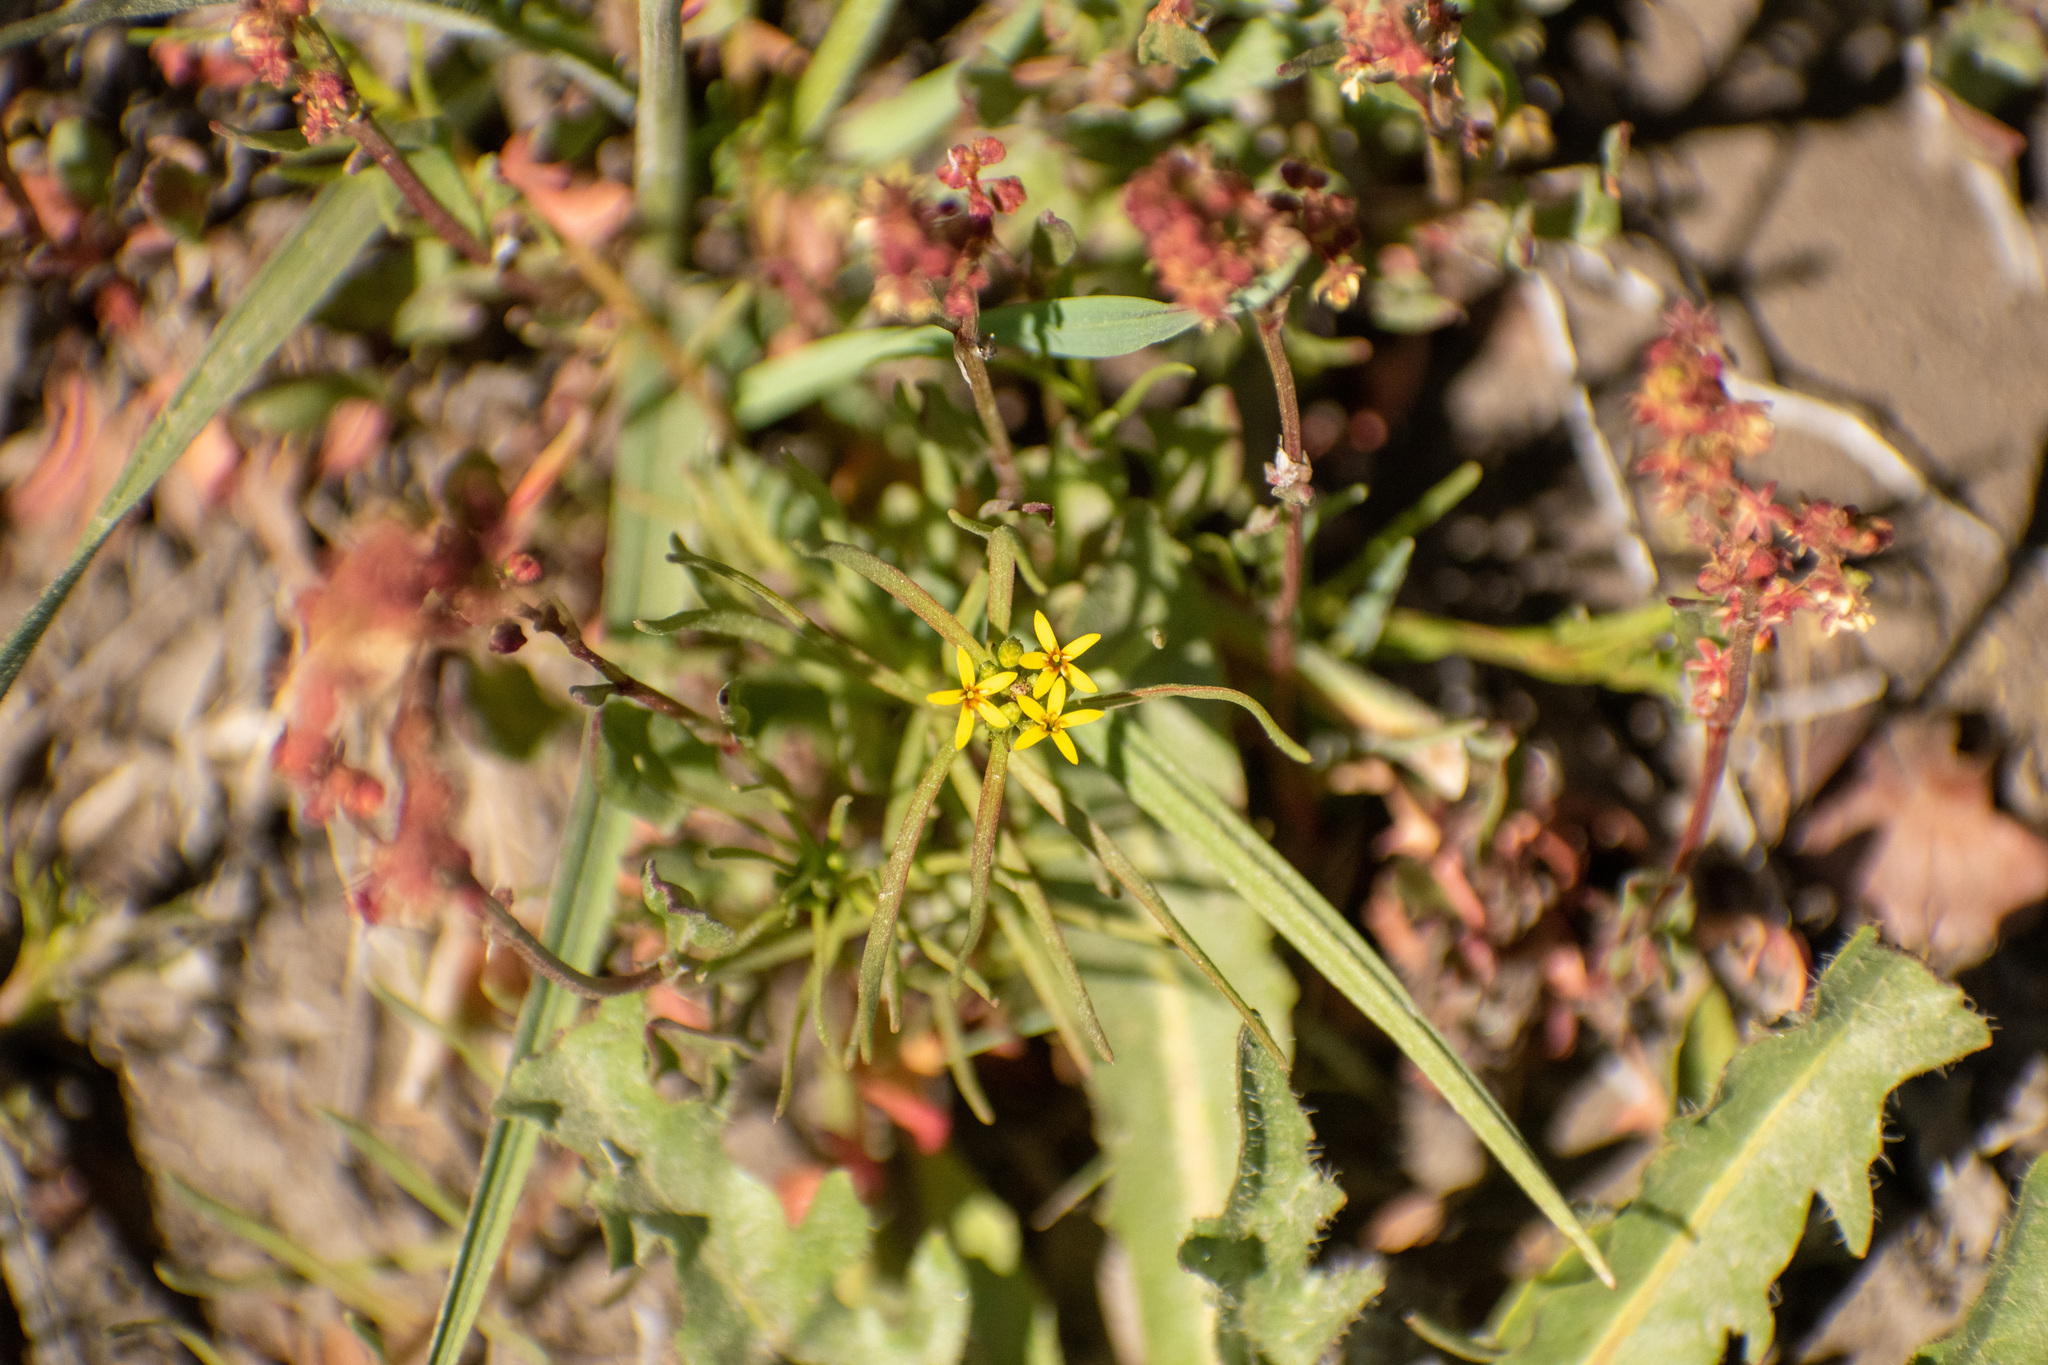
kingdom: Plantae
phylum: Tracheophyta
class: Magnoliopsida
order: Santalales
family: Schoepfiaceae
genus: Quinchamalium
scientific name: Quinchamalium chilense
